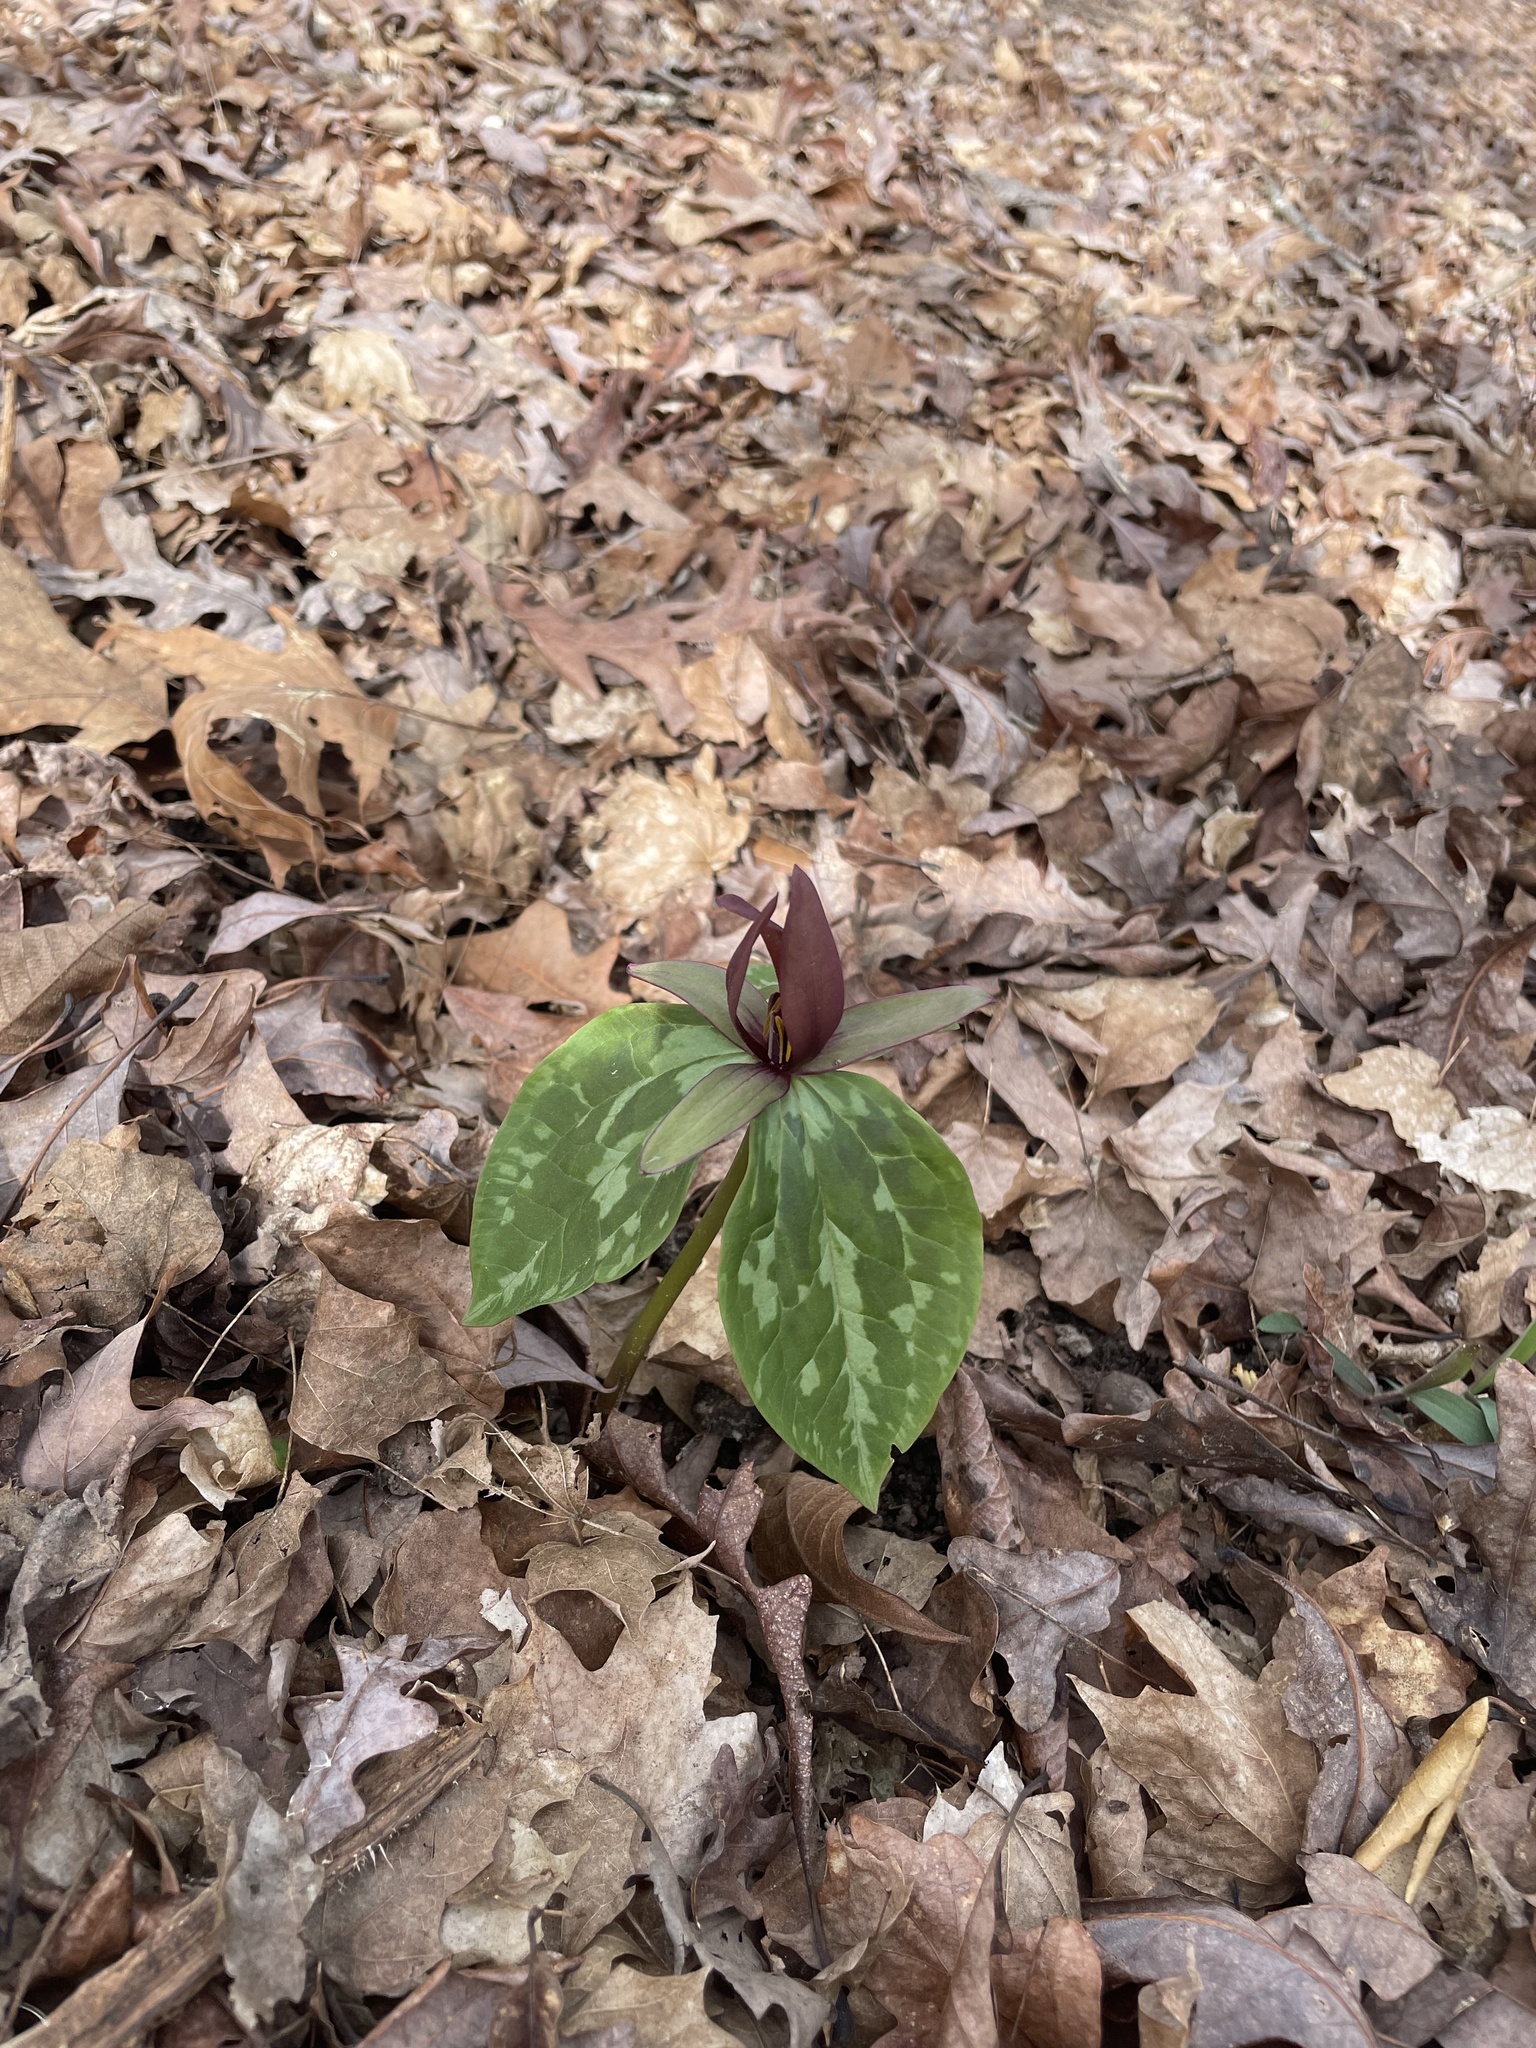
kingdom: Plantae
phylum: Tracheophyta
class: Liliopsida
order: Liliales
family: Melanthiaceae
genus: Trillium
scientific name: Trillium cuneatum
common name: Cuneate trillium
